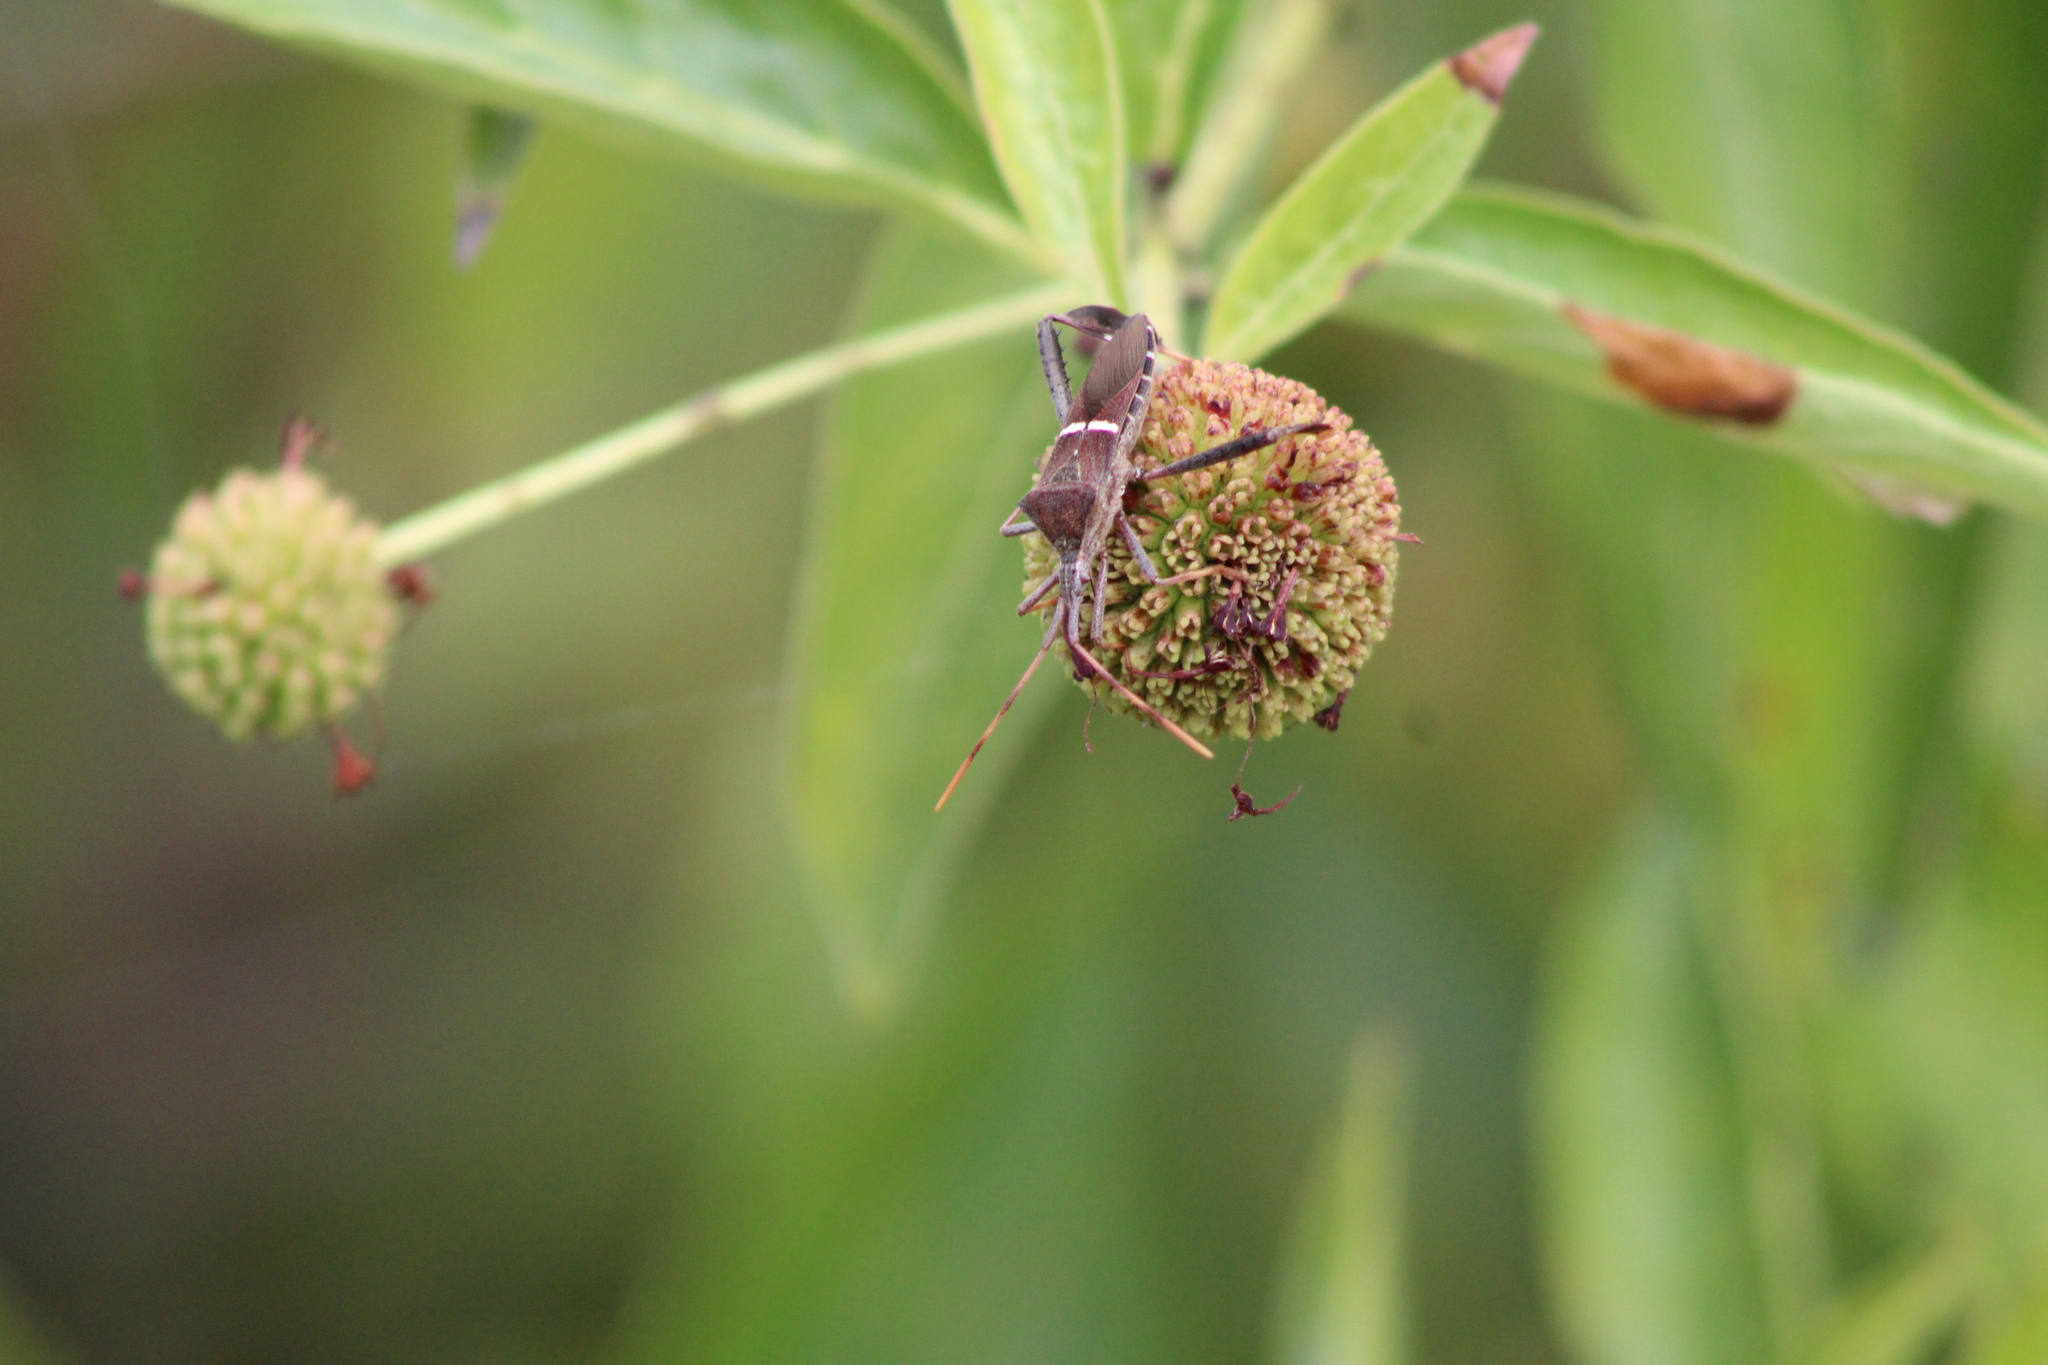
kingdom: Animalia
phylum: Arthropoda
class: Insecta
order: Hemiptera
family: Coreidae
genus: Leptoglossus
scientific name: Leptoglossus phyllopus
